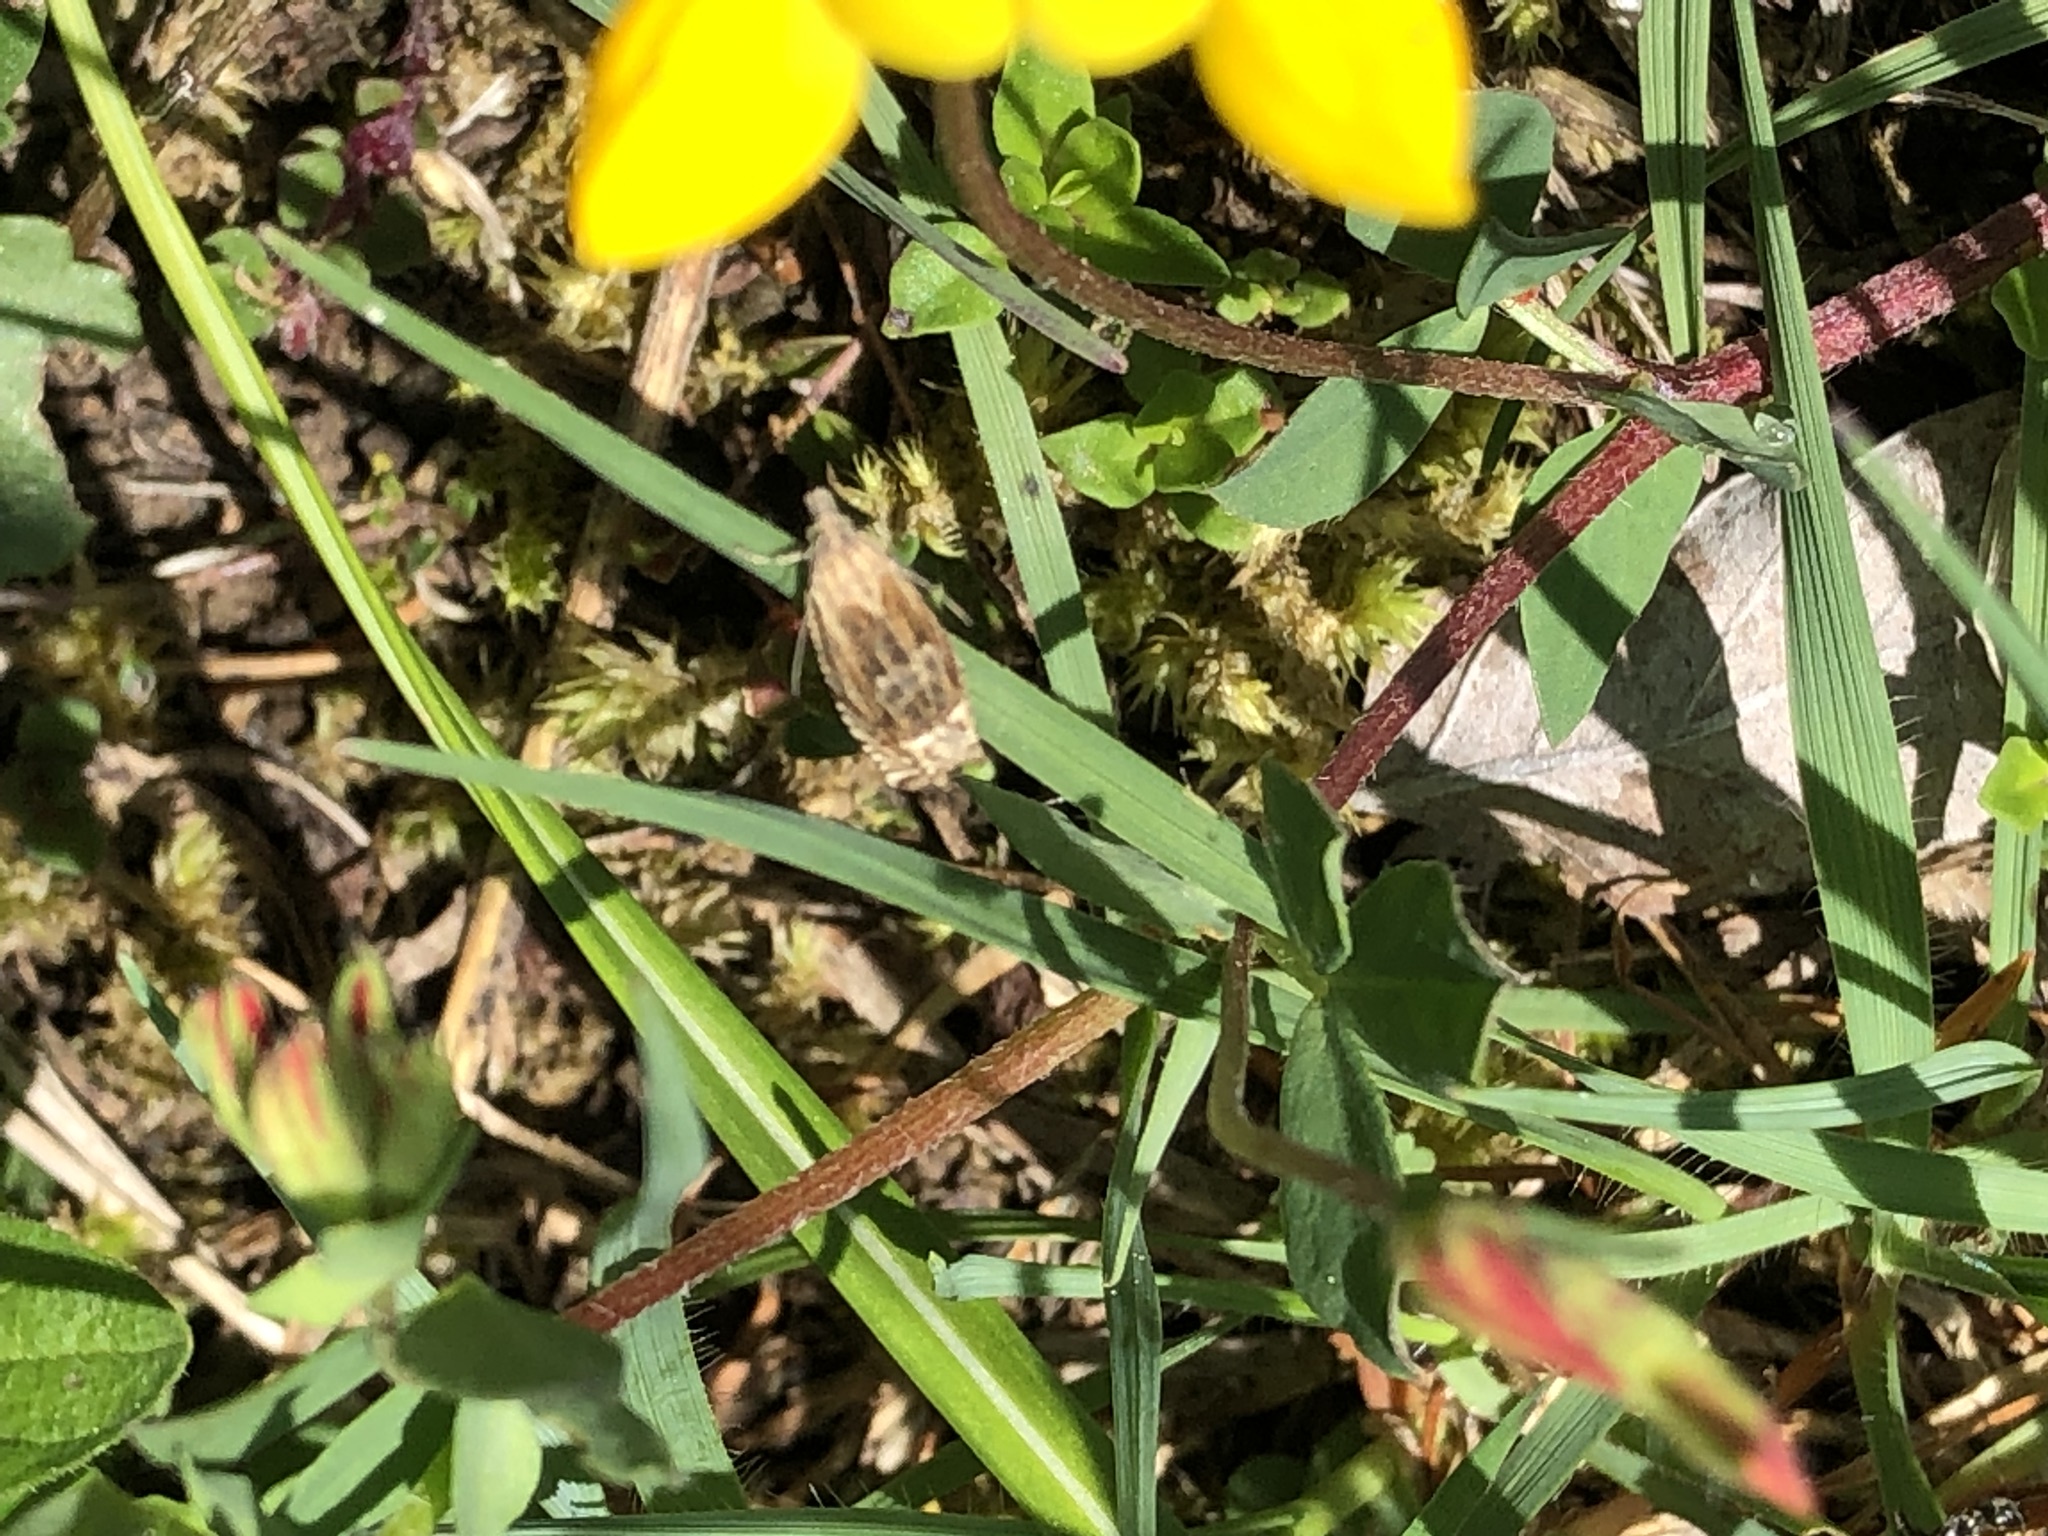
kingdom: Animalia
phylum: Arthropoda
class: Insecta
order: Lepidoptera
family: Tortricidae
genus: Eucosma
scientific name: Eucosma aspidiscana
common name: Golden-rod bell
